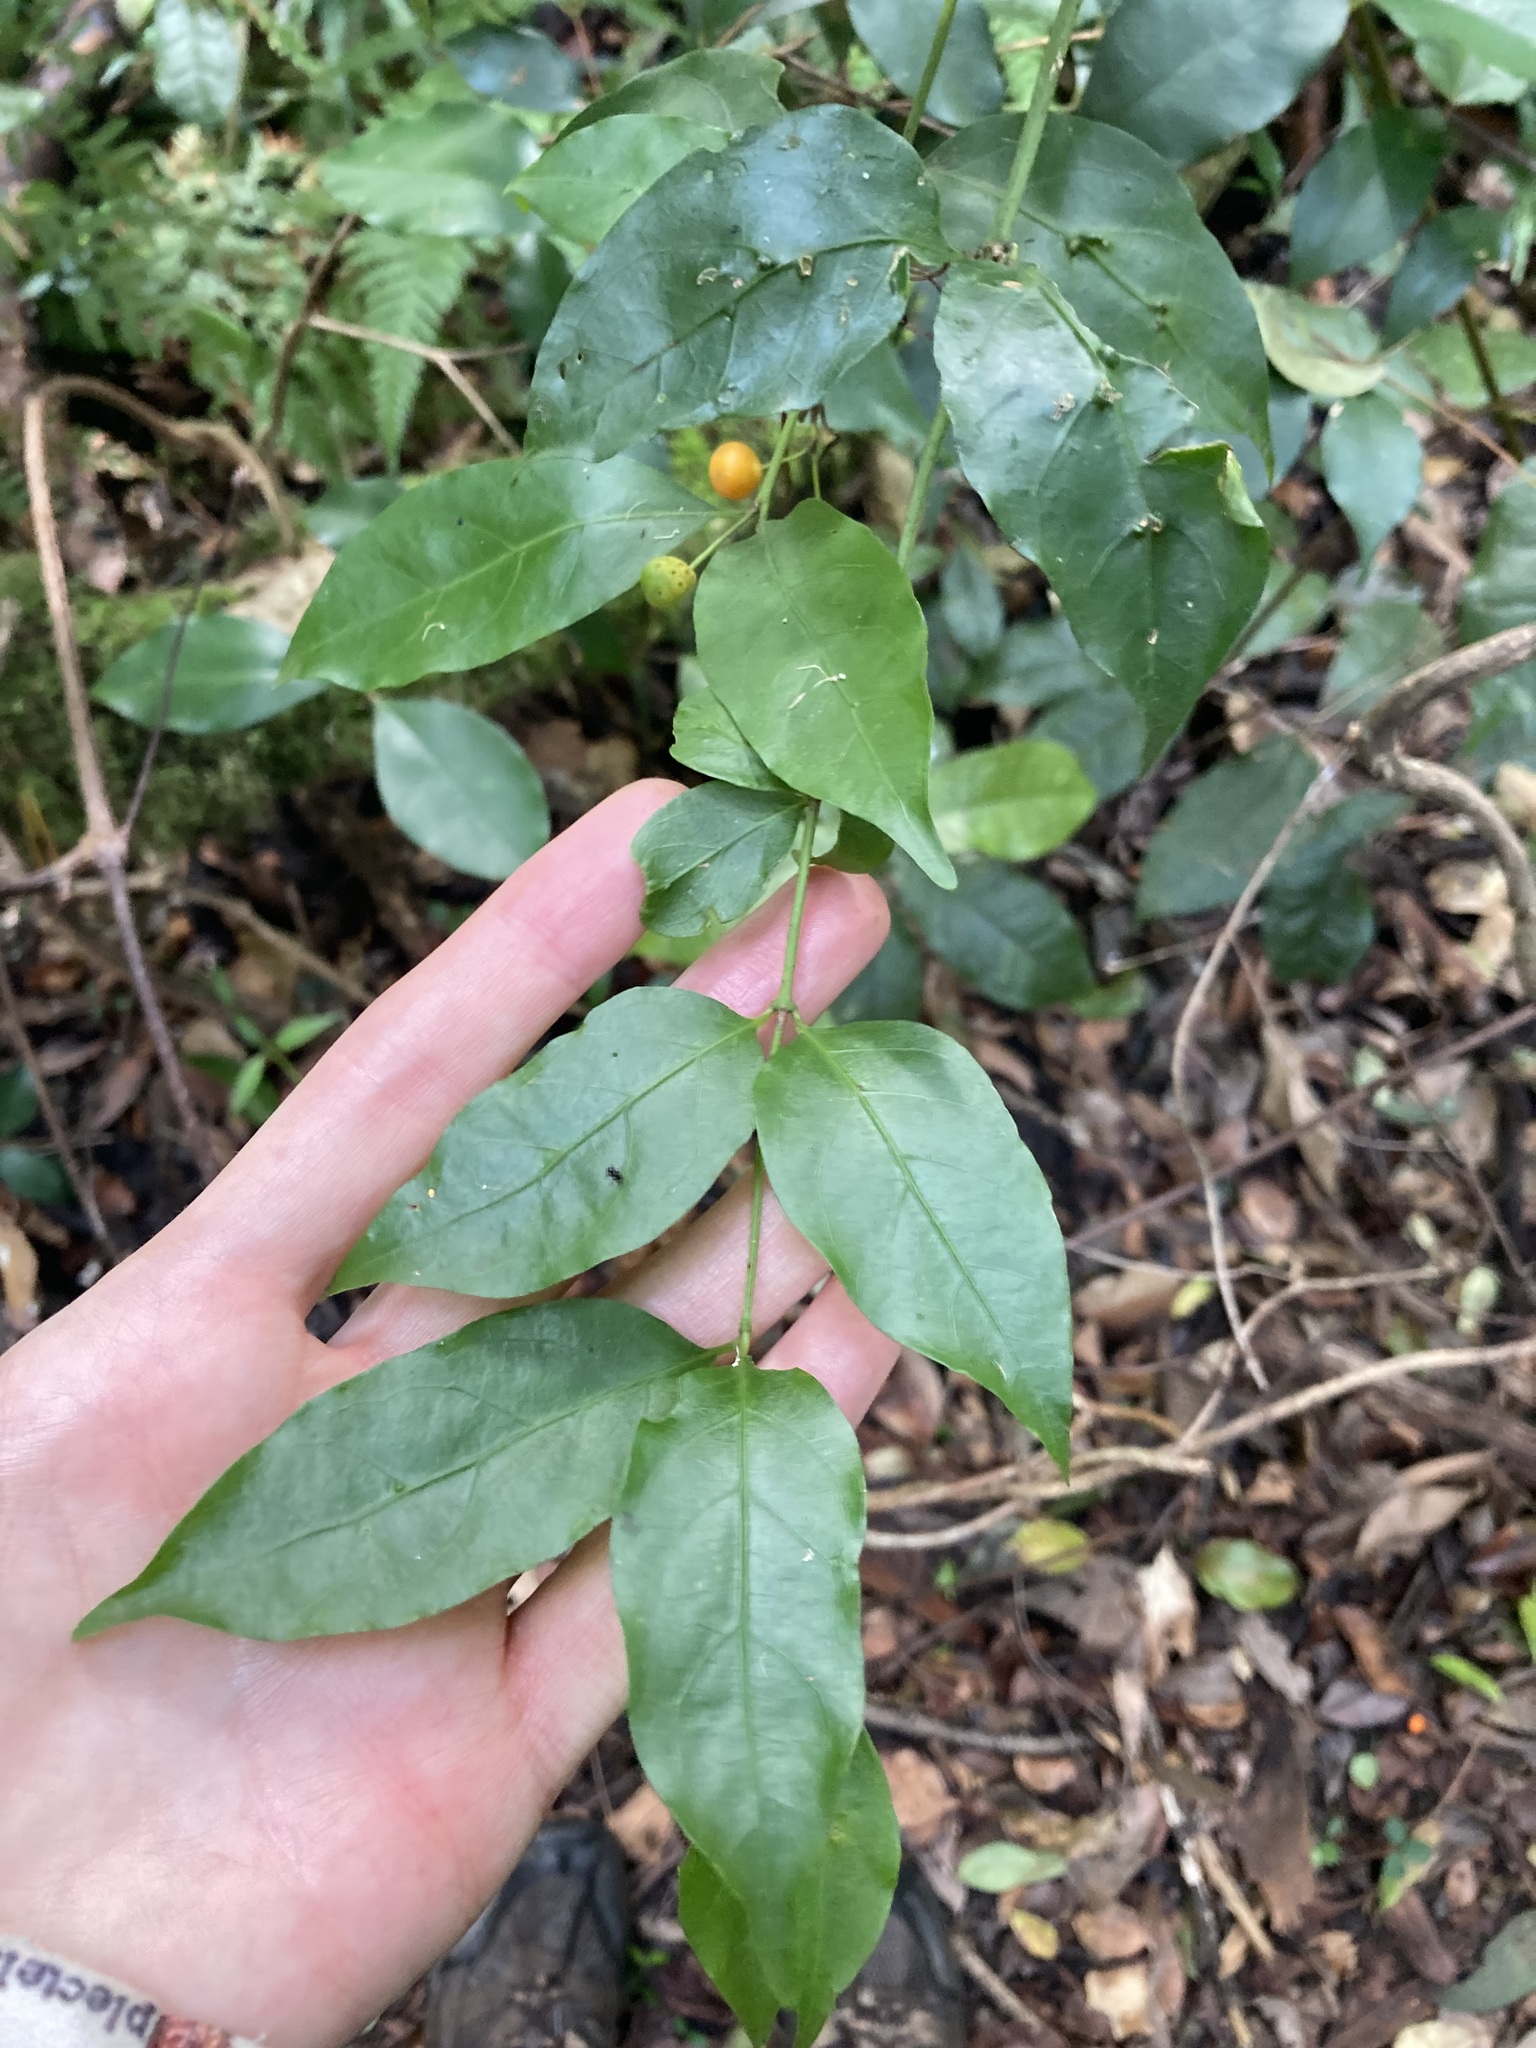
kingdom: Plantae
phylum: Tracheophyta
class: Magnoliopsida
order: Gentianales
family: Rubiaceae
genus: Gynochthodes
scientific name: Gynochthodes jasminoides
